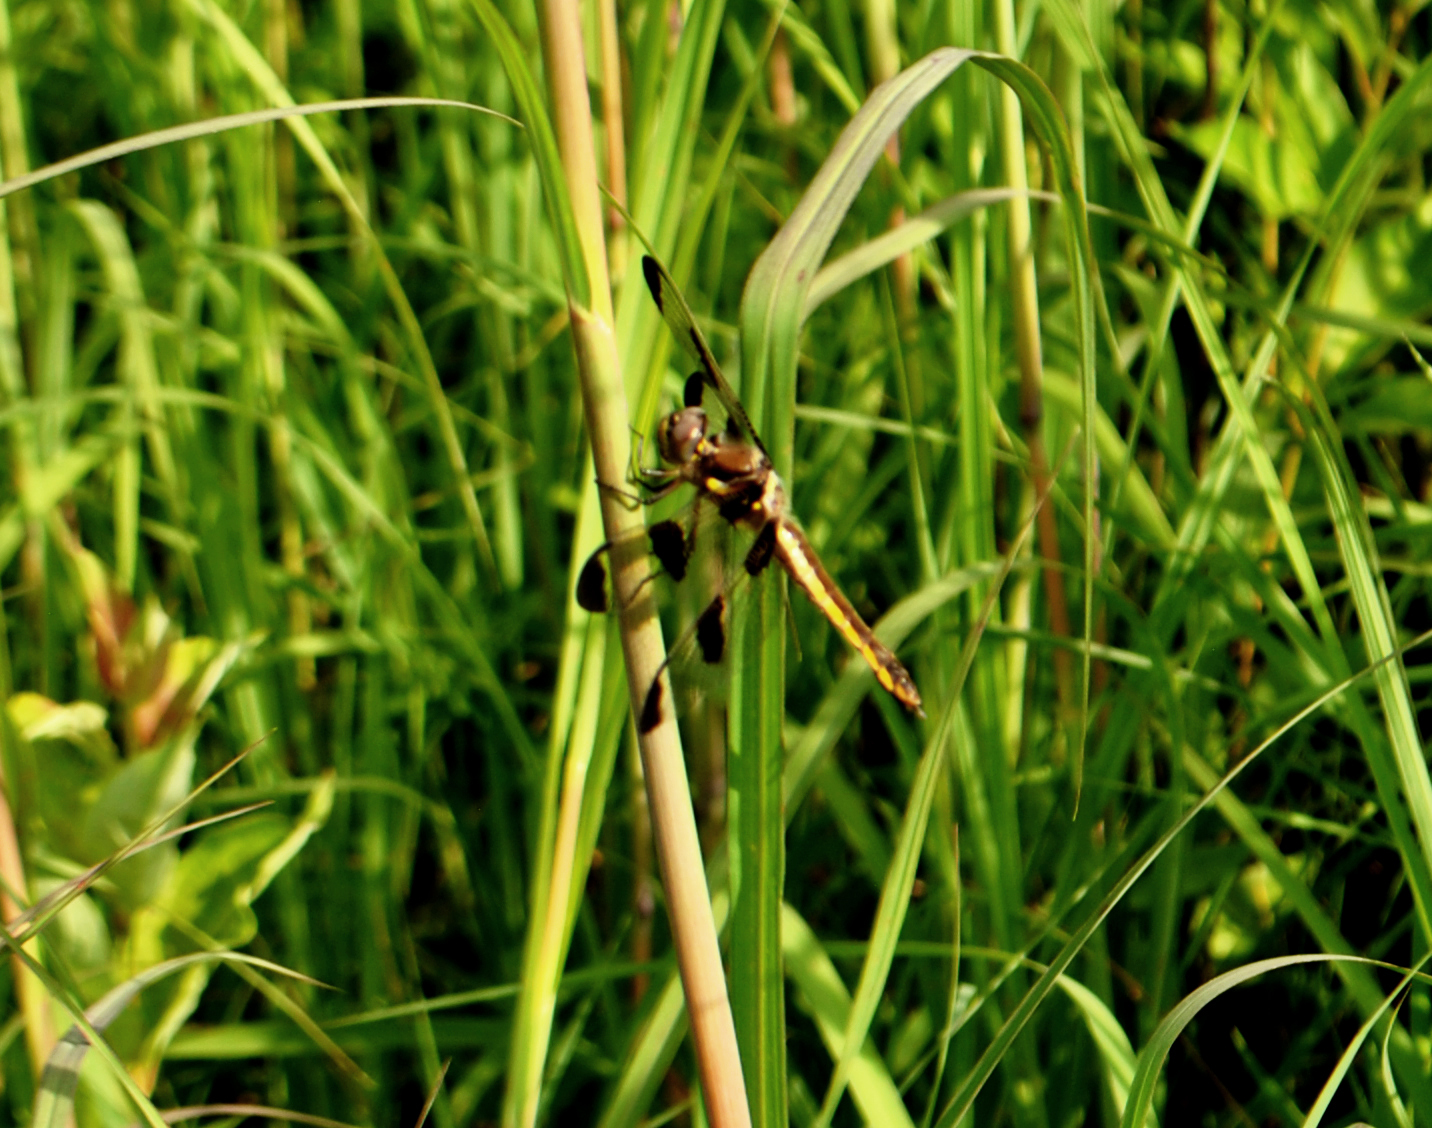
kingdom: Animalia
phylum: Arthropoda
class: Insecta
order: Odonata
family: Libellulidae
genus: Libellula
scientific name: Libellula pulchella
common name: Twelve-spotted skimmer
